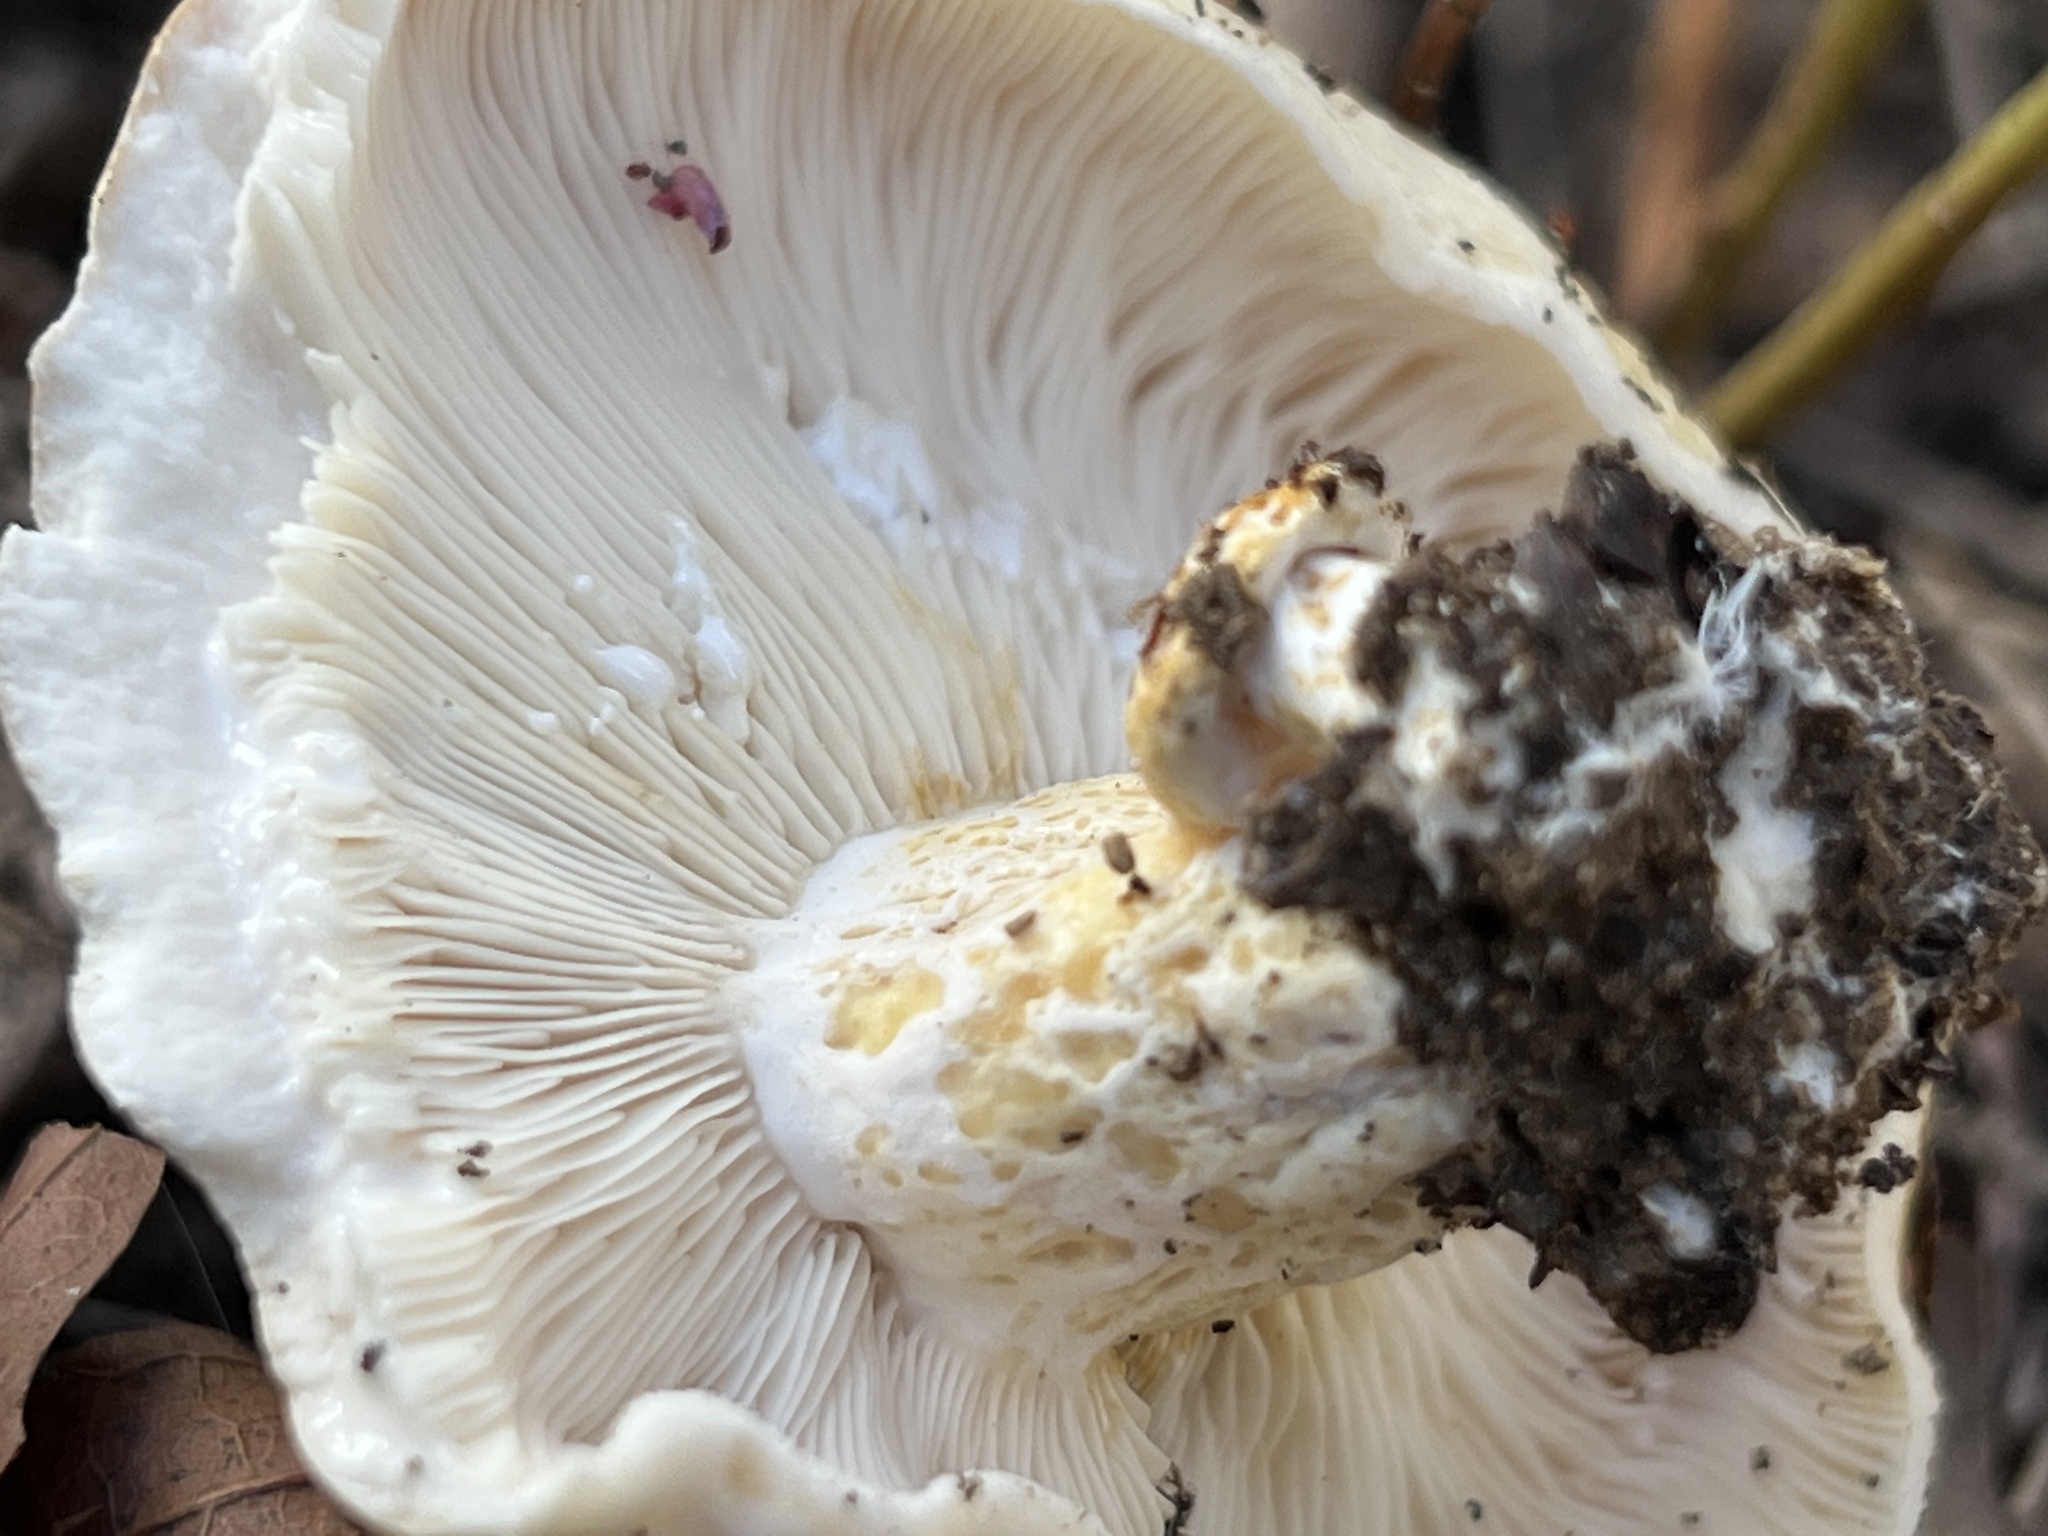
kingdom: Fungi
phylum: Basidiomycota
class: Agaricomycetes
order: Russulales
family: Russulaceae
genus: Lactarius
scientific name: Lactarius alnicola
